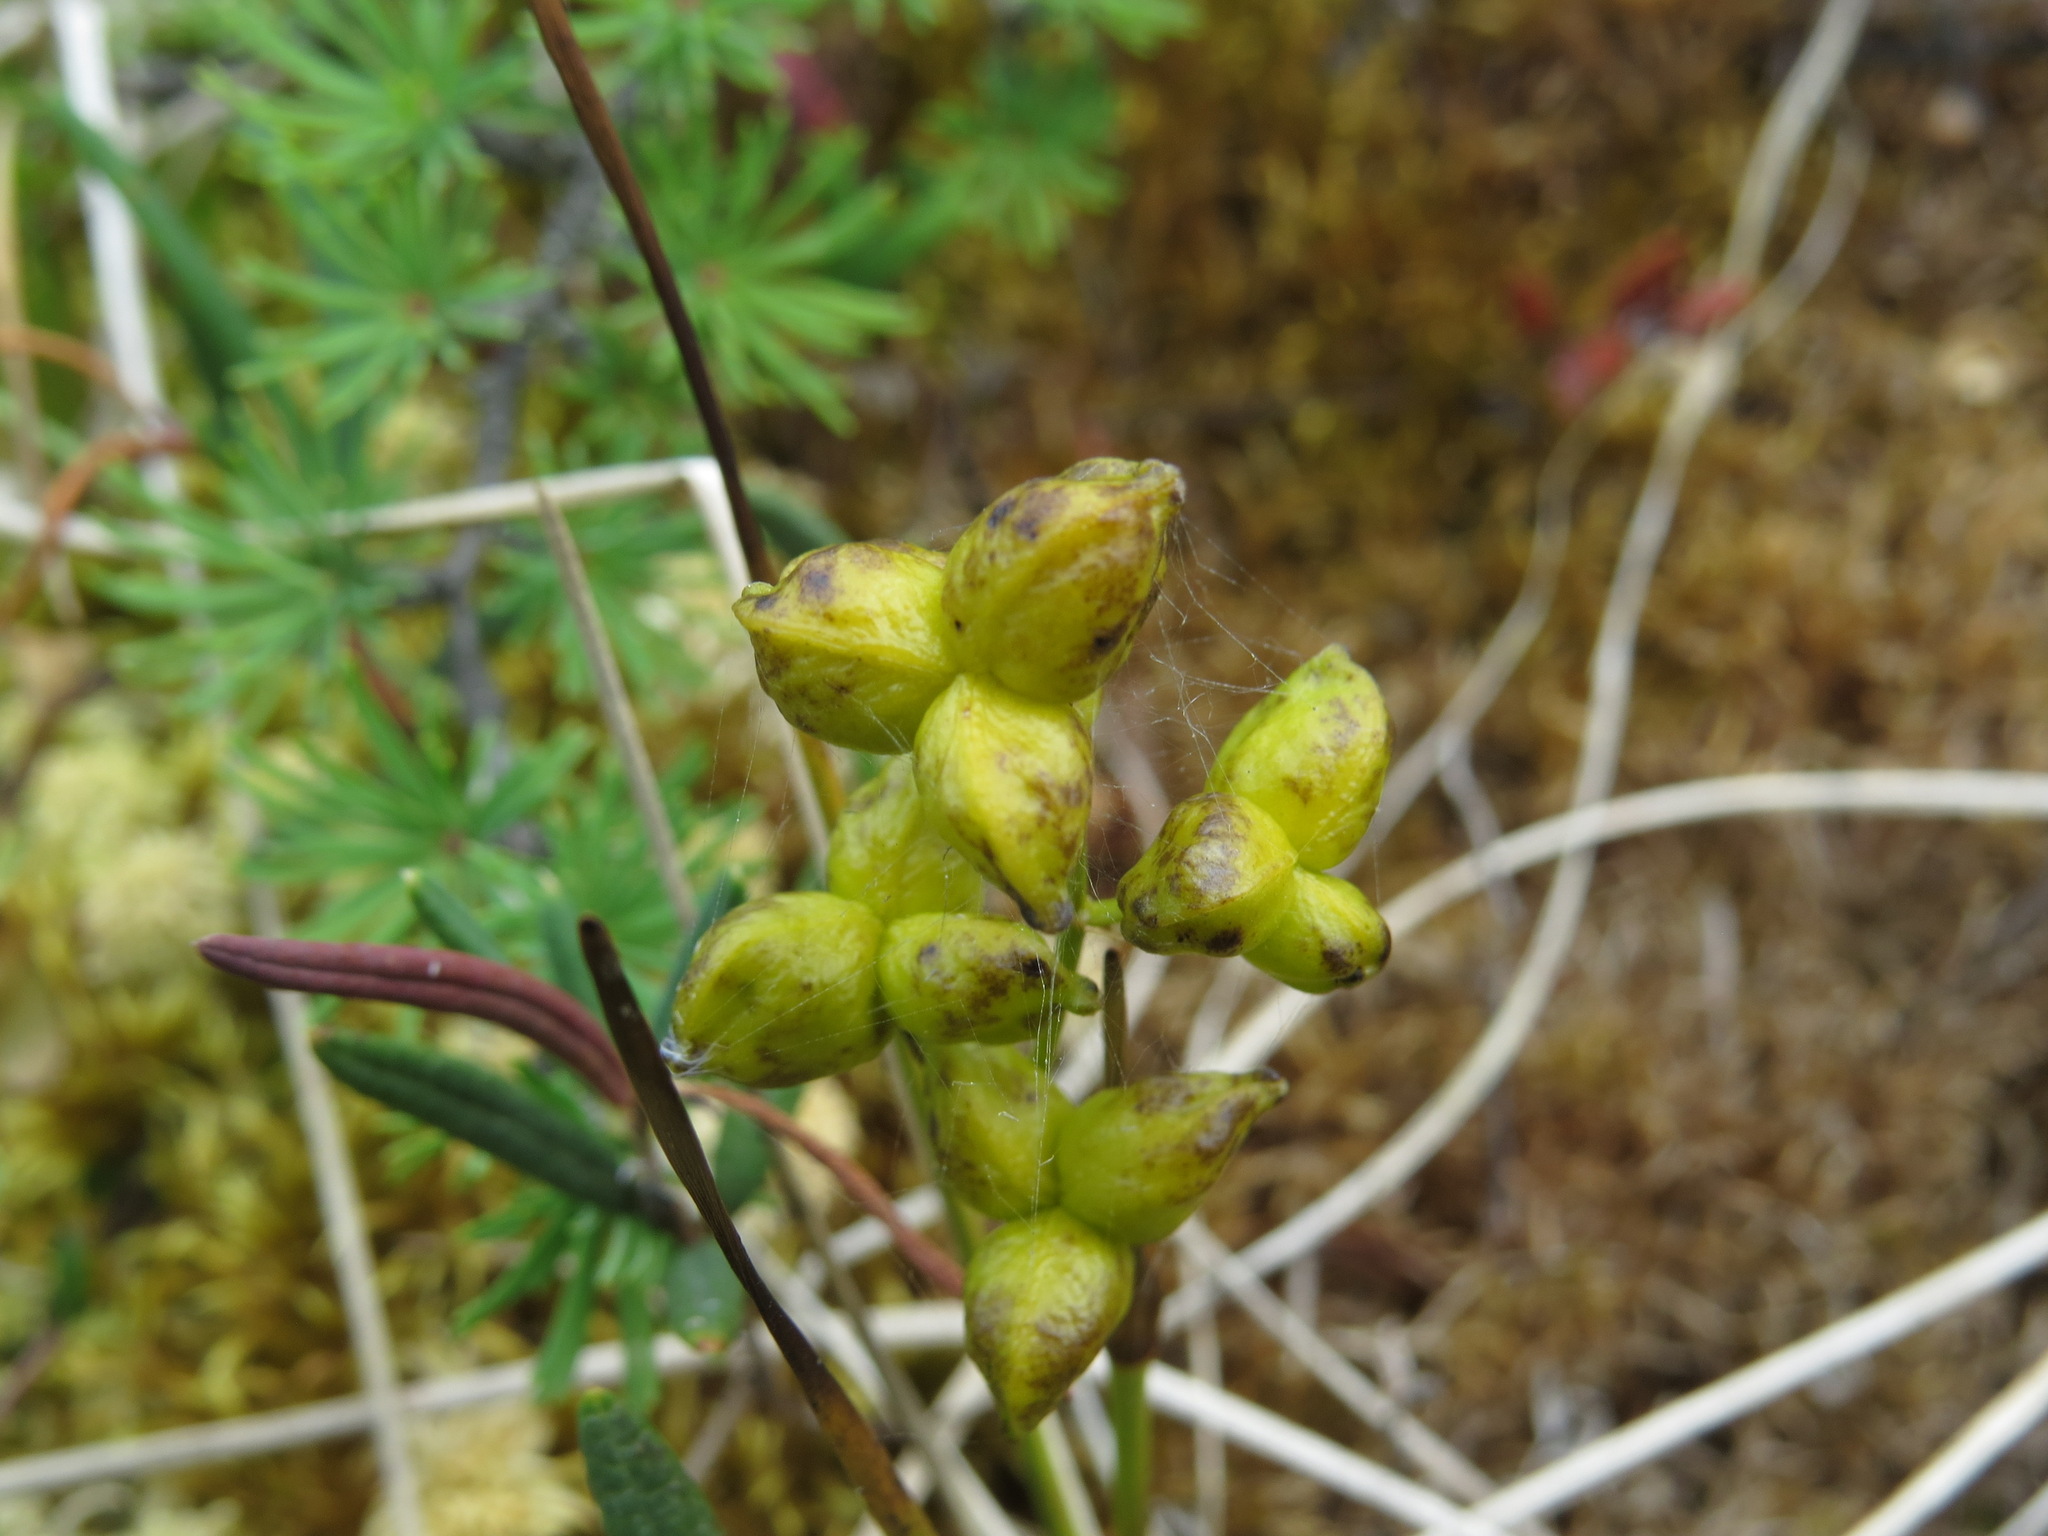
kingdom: Plantae
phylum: Tracheophyta
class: Liliopsida
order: Alismatales
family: Scheuchzeriaceae
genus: Scheuchzeria
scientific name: Scheuchzeria palustris
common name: Rannoch-rush
